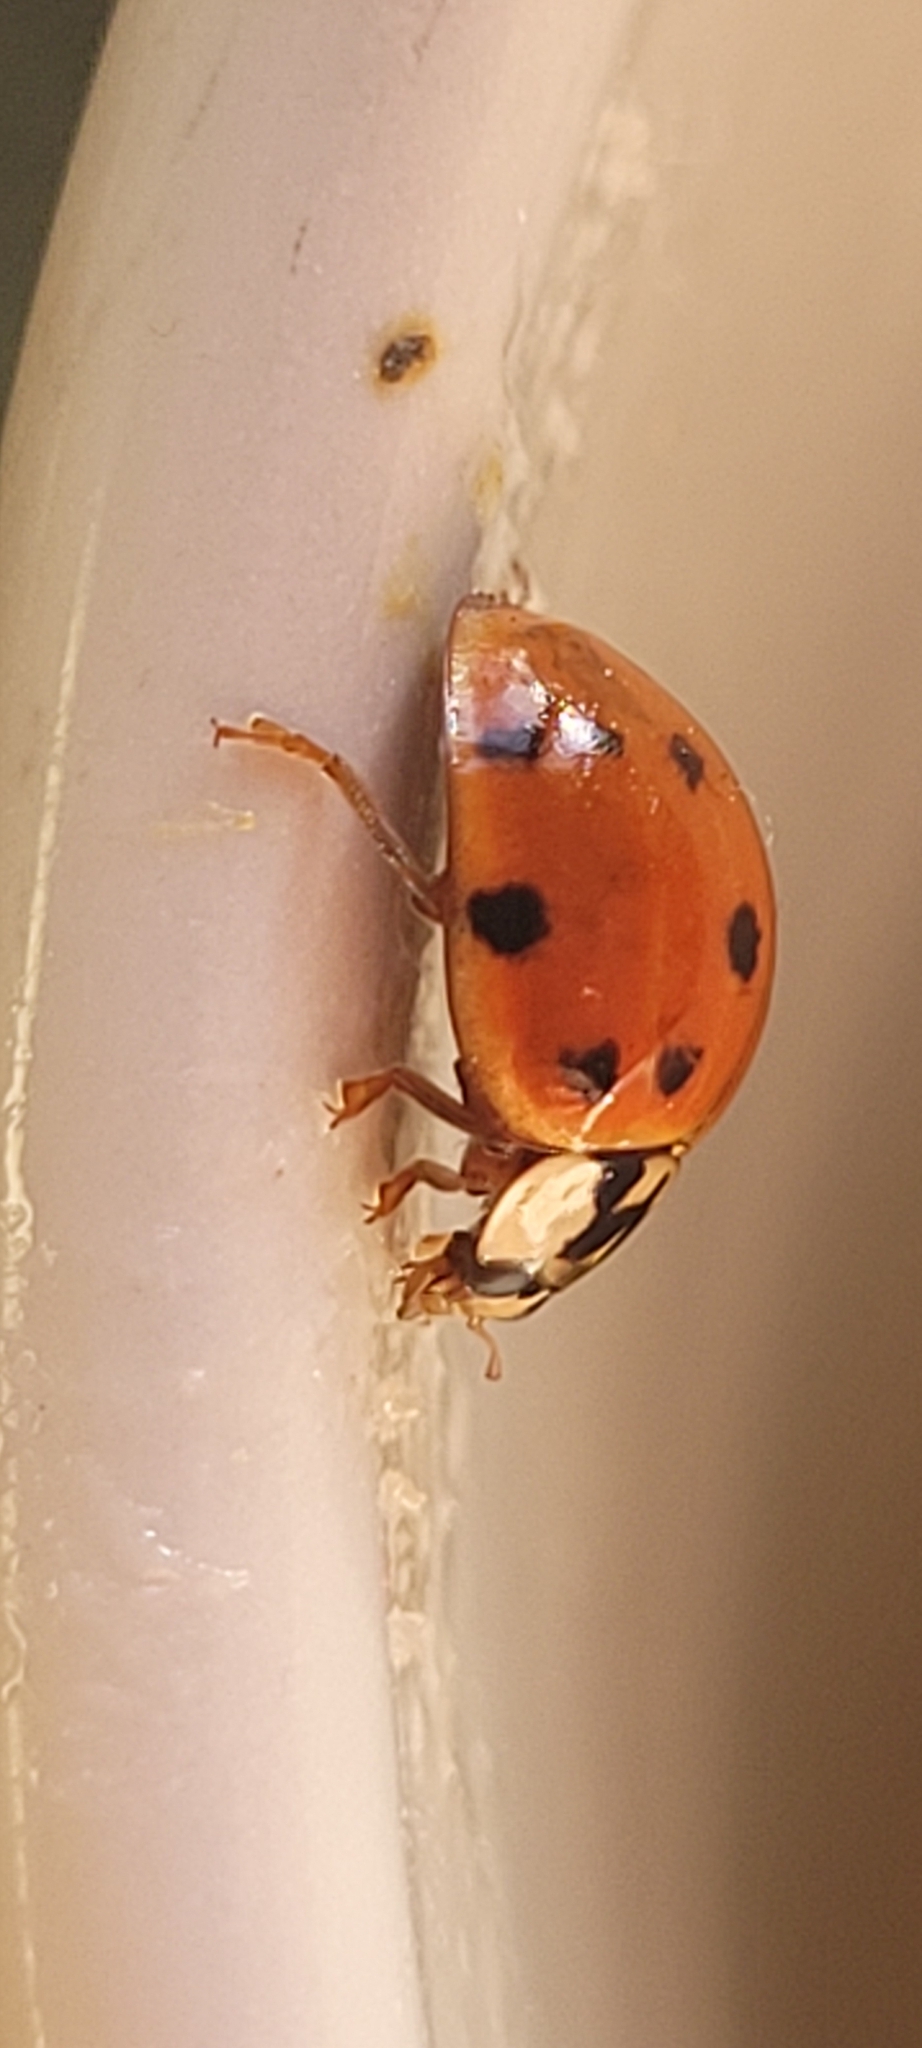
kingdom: Animalia
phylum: Arthropoda
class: Insecta
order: Coleoptera
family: Coccinellidae
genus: Harmonia
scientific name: Harmonia axyridis
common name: Harlequin ladybird
